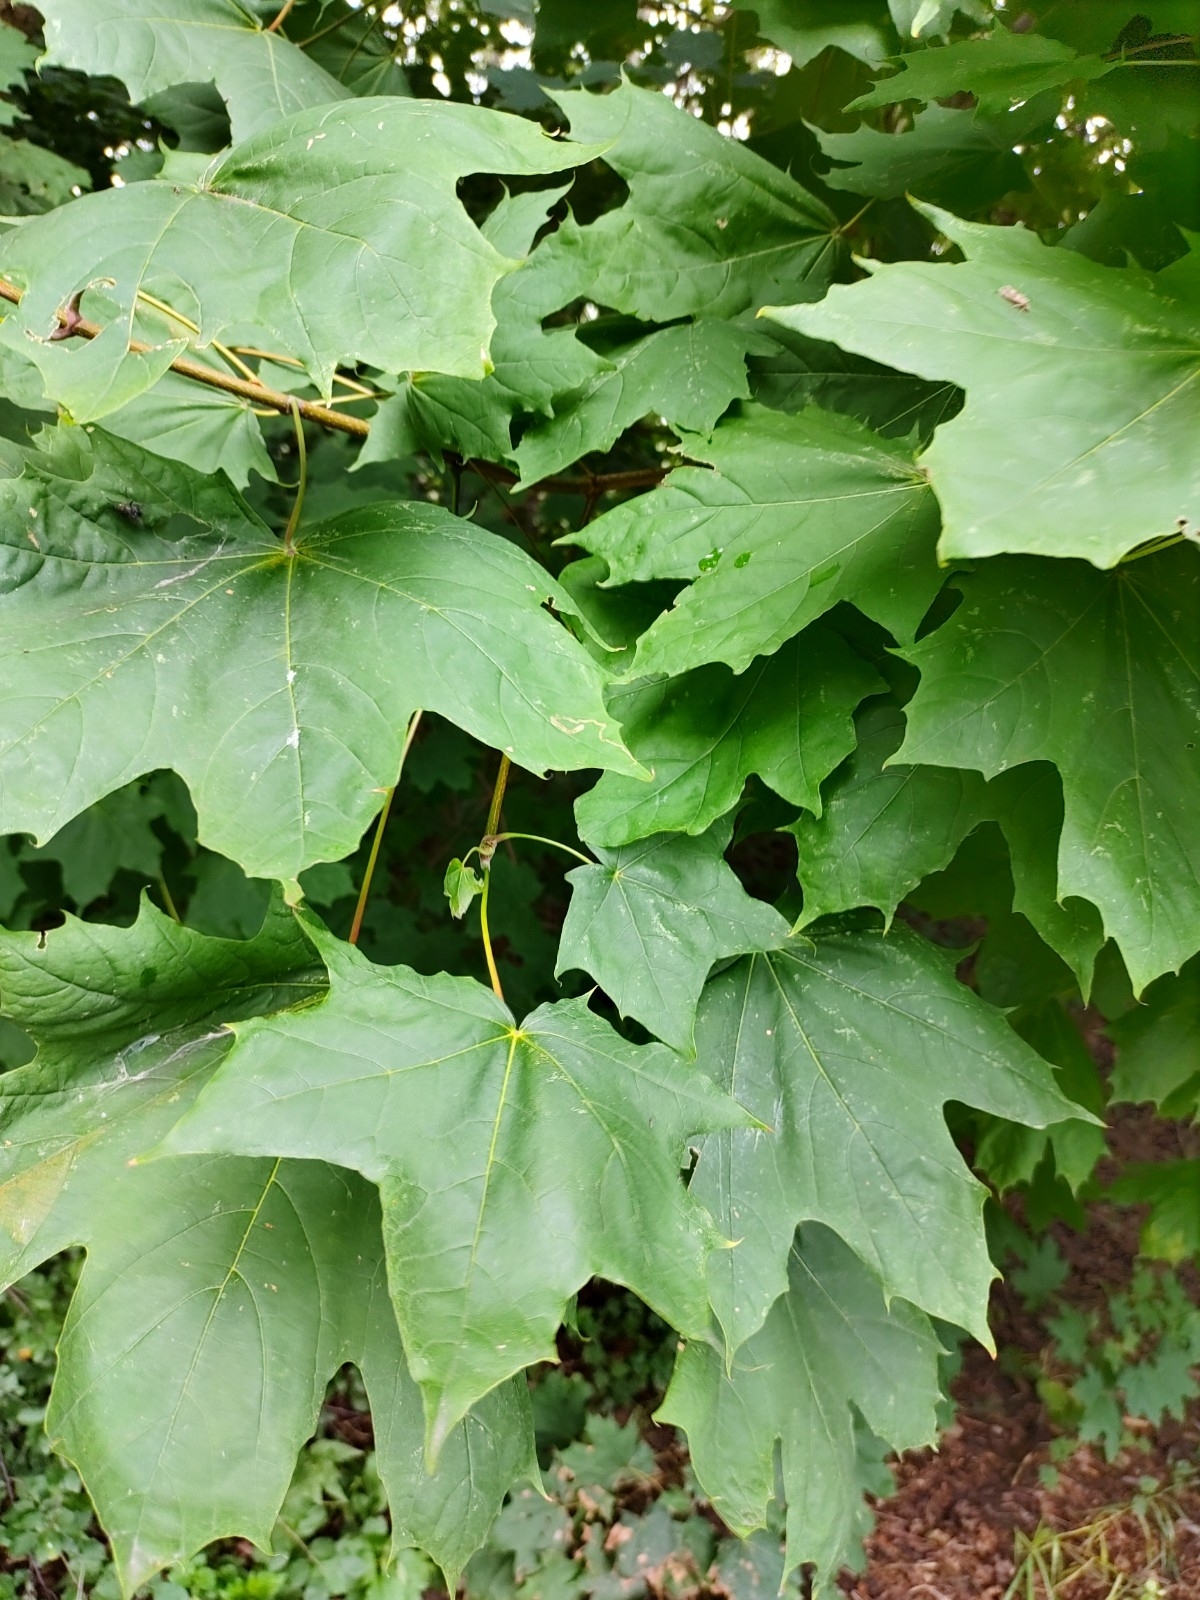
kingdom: Plantae
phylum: Tracheophyta
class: Magnoliopsida
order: Sapindales
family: Sapindaceae
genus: Acer
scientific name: Acer platanoides
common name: Norway maple
